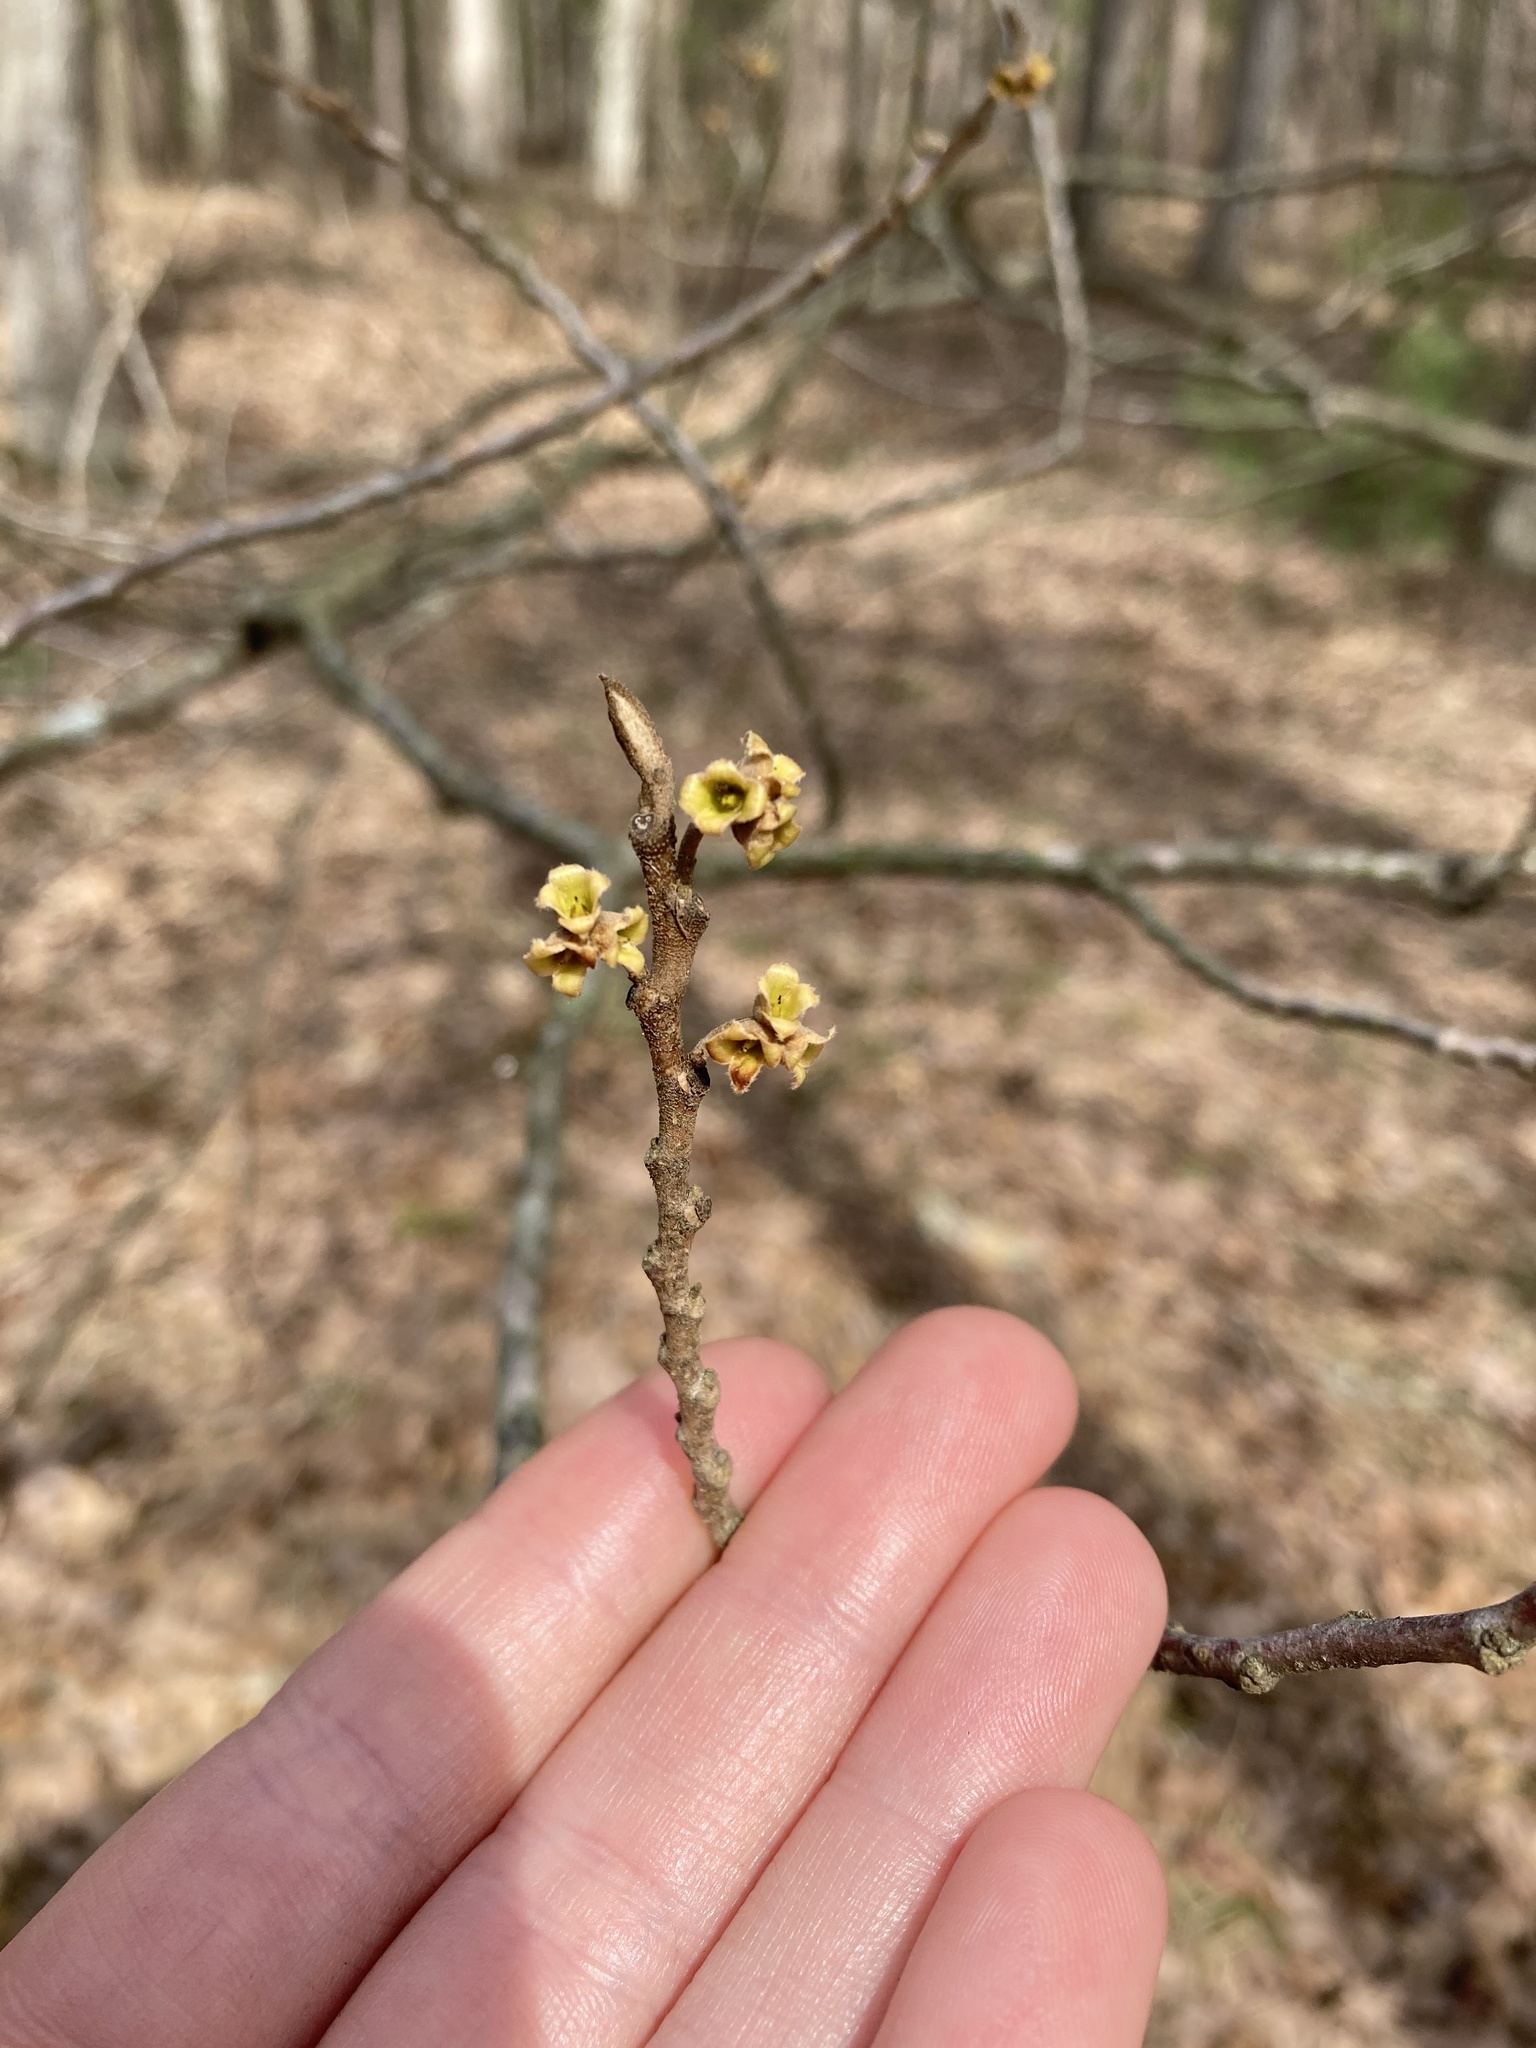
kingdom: Plantae
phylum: Tracheophyta
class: Magnoliopsida
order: Saxifragales
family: Hamamelidaceae
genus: Hamamelis
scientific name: Hamamelis virginiana
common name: Witch-hazel
